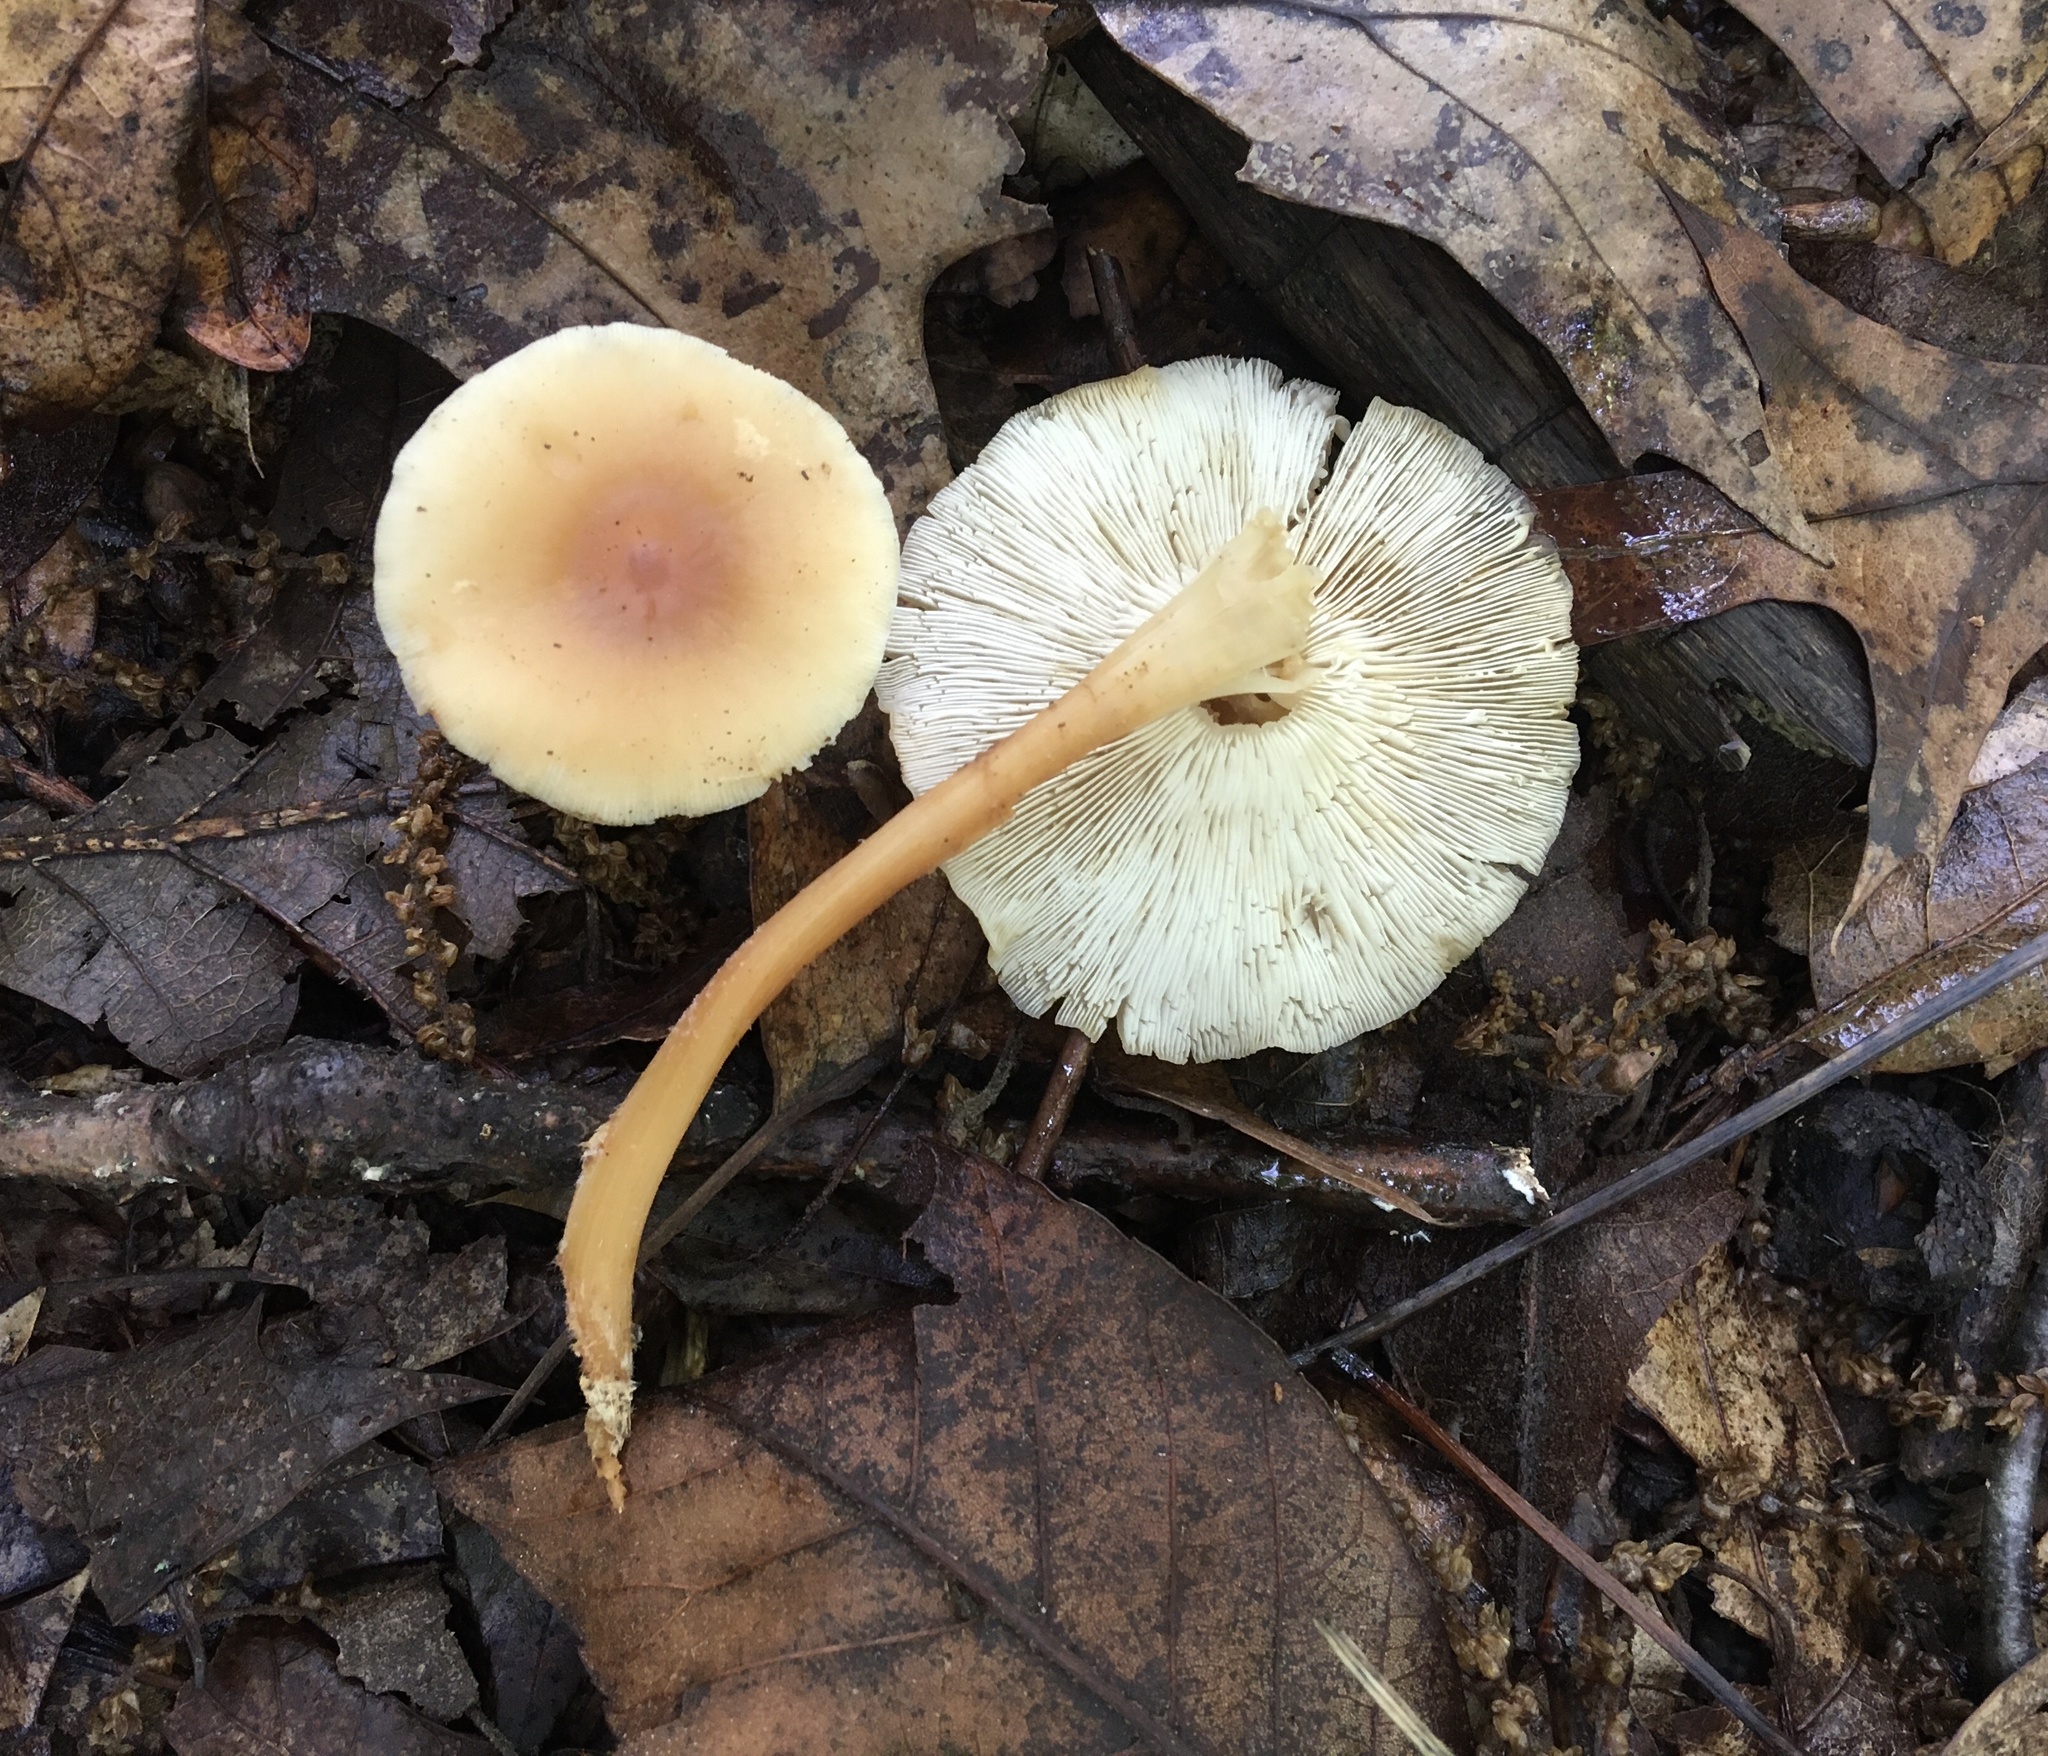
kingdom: Fungi
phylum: Basidiomycota
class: Agaricomycetes
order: Agaricales
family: Omphalotaceae
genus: Gymnopus
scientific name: Gymnopus dryophilus
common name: Penny top
